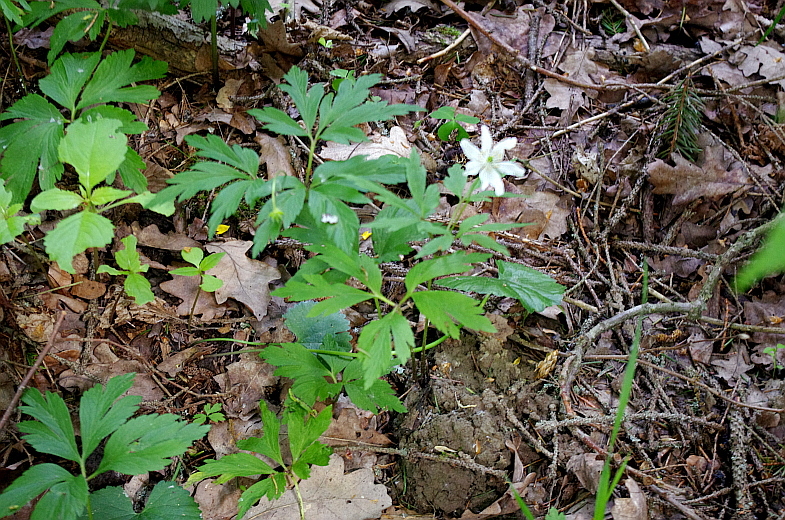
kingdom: Plantae
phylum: Tracheophyta
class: Magnoliopsida
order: Ranunculales
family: Ranunculaceae
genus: Anemone
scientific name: Anemone nemorosa
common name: Wood anemone
